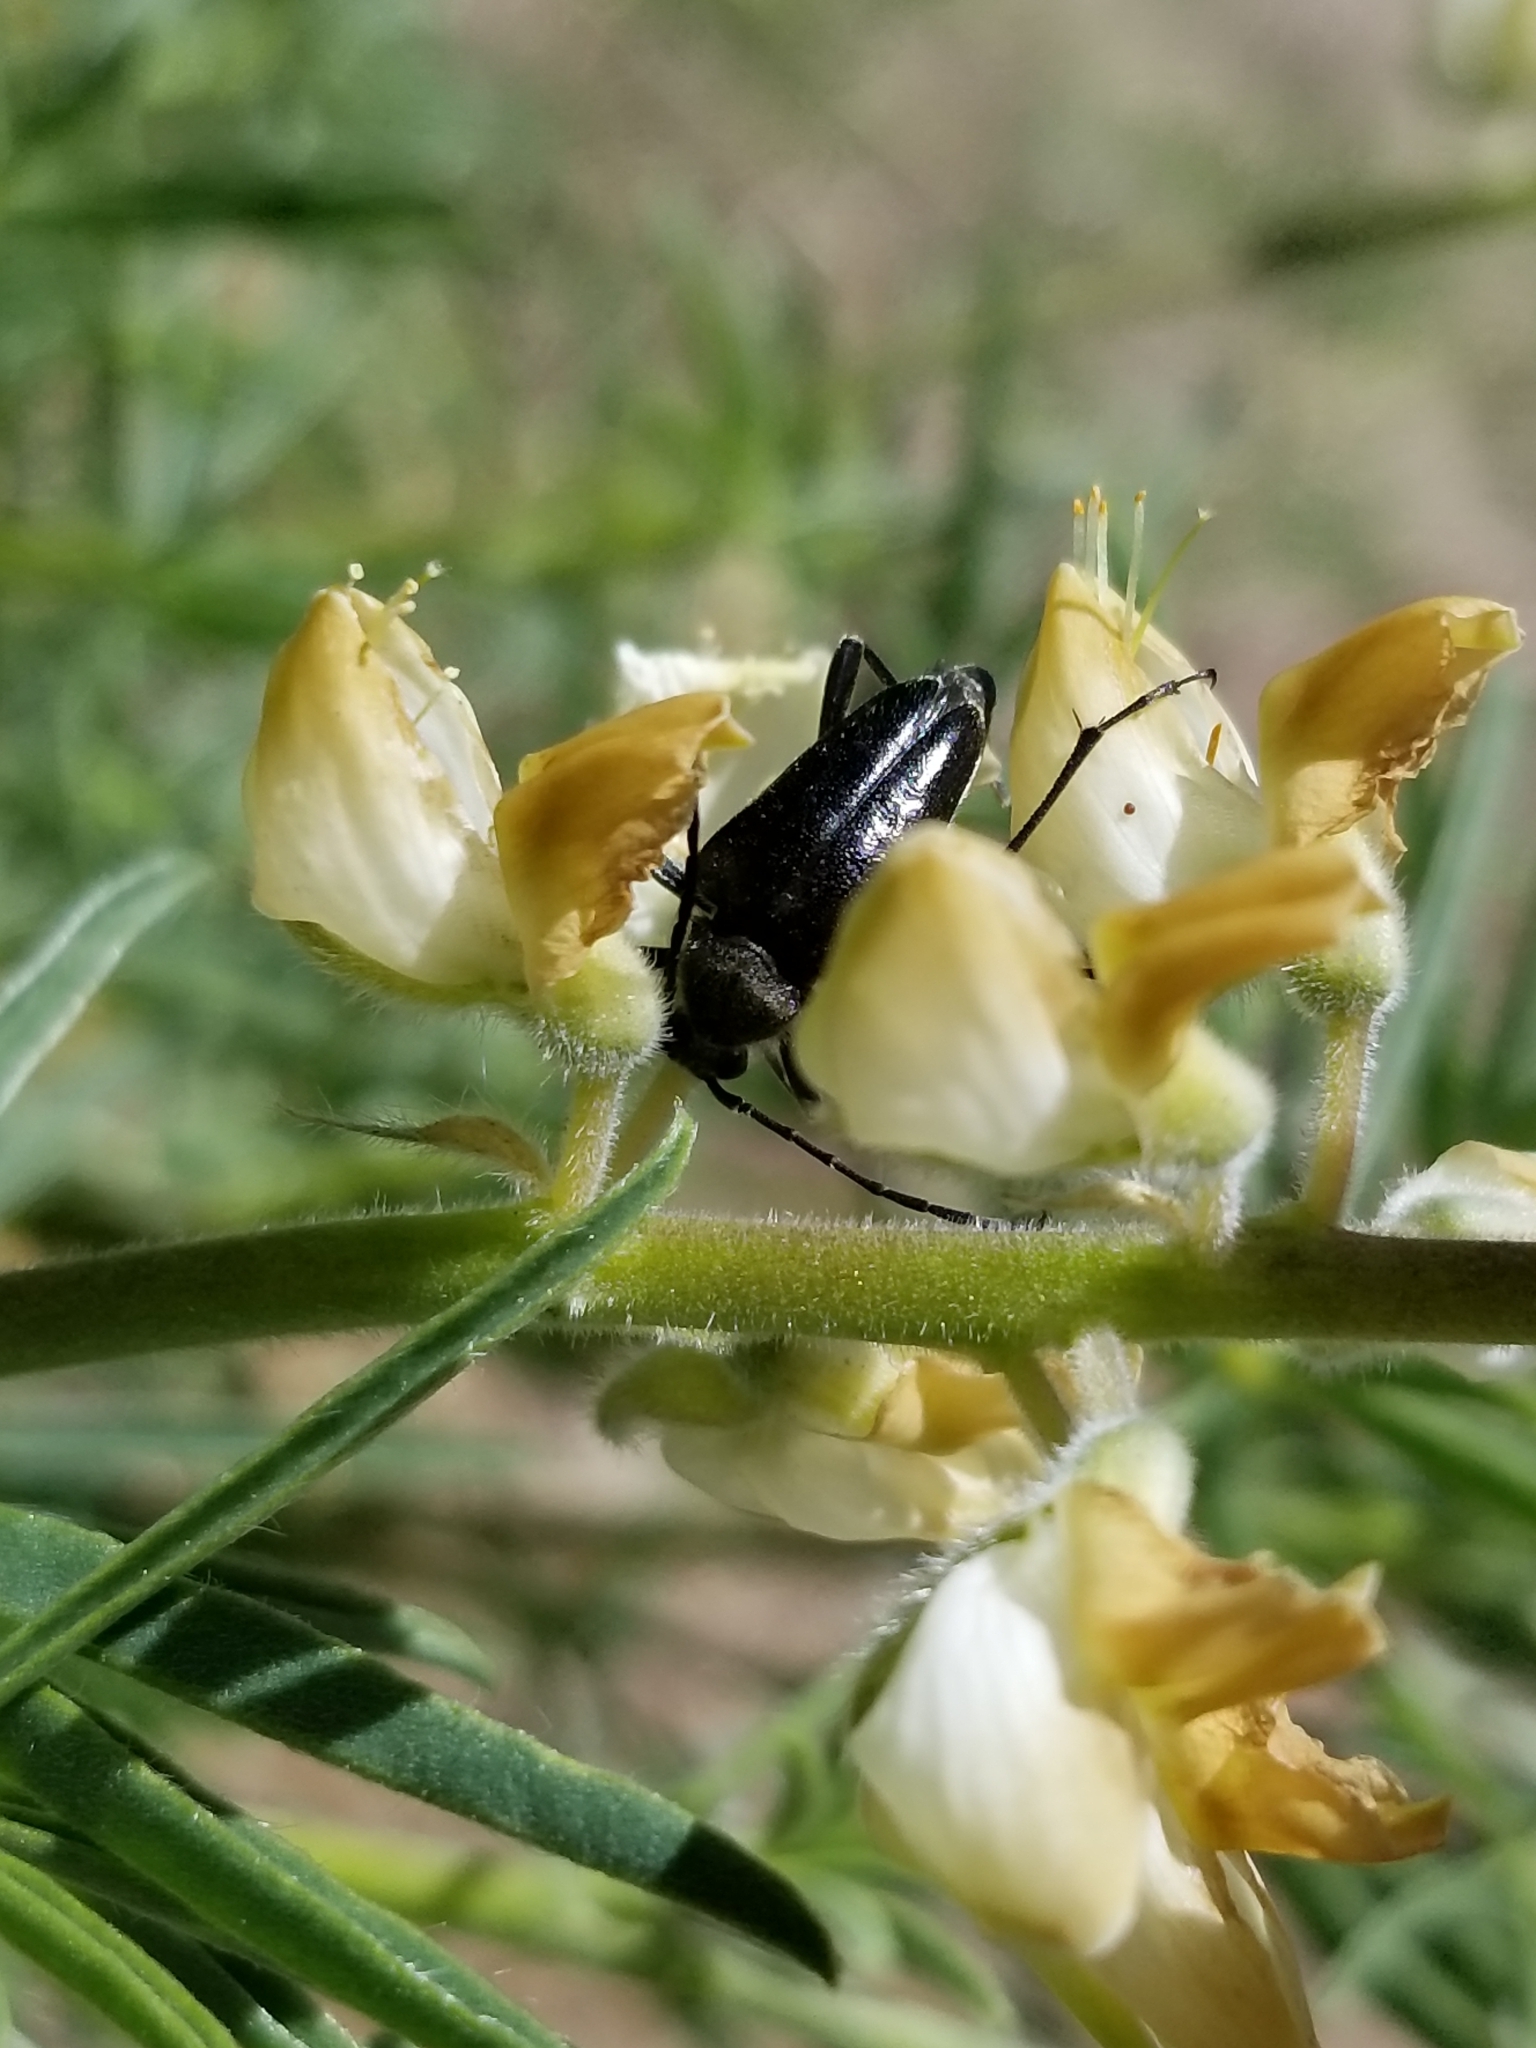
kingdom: Animalia
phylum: Arthropoda
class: Insecta
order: Coleoptera
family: Cerambycidae
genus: Judolia
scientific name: Judolia instabilis
